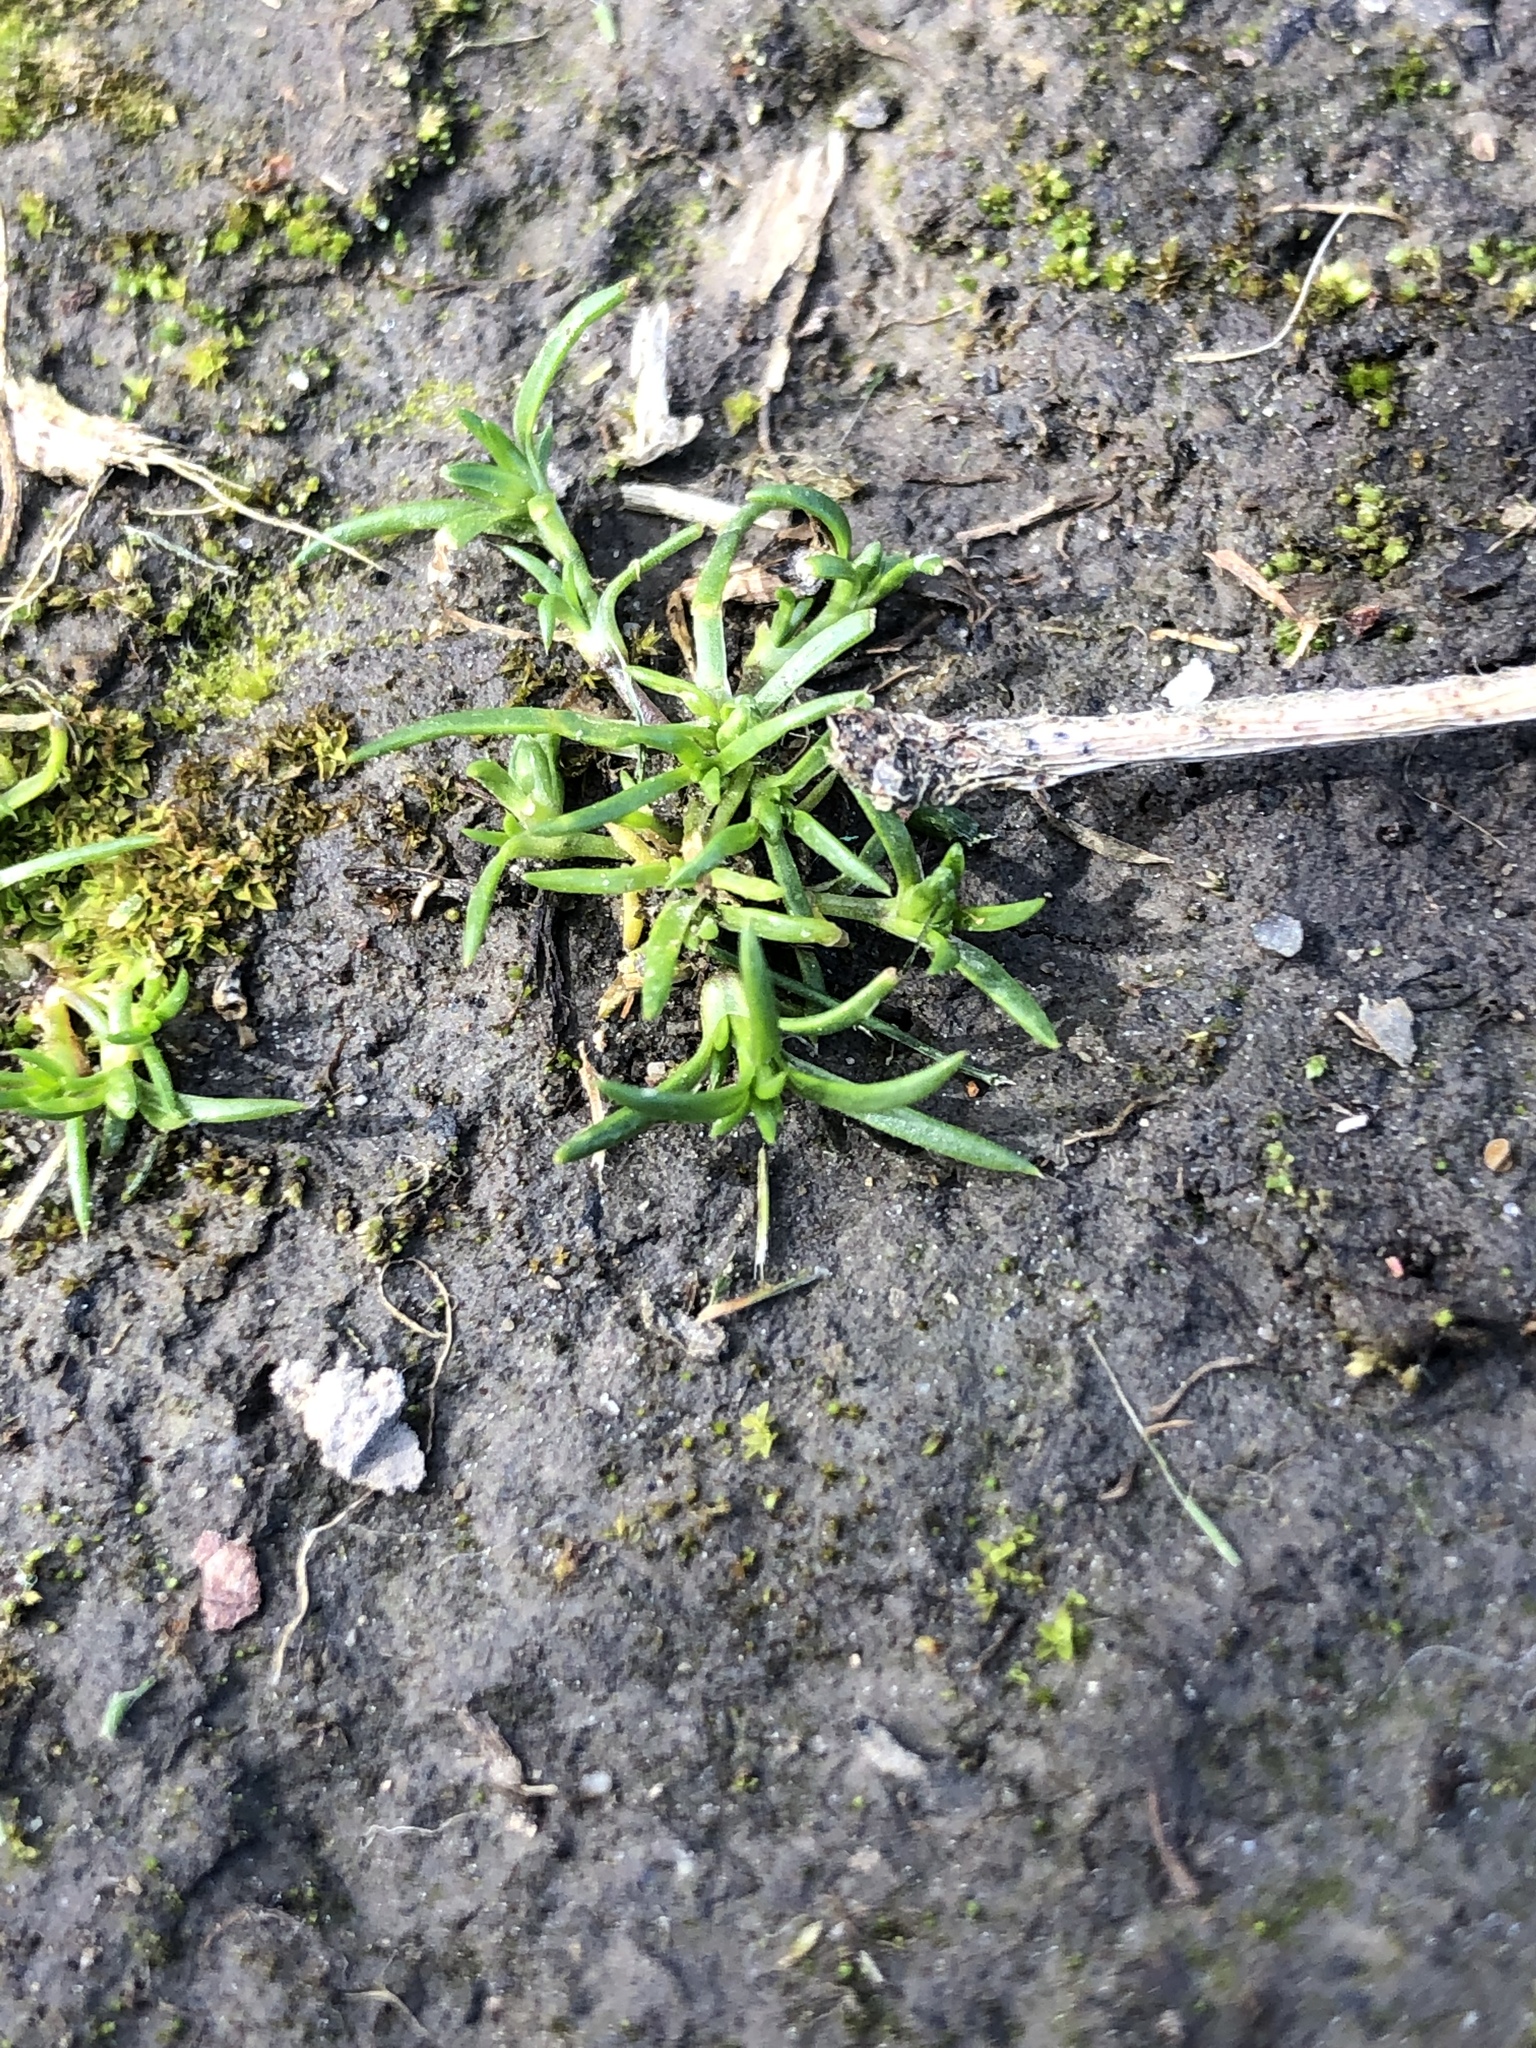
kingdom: Plantae
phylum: Tracheophyta
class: Magnoliopsida
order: Caryophyllales
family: Caryophyllaceae
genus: Sagina
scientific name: Sagina procumbens
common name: Procumbent pearlwort
